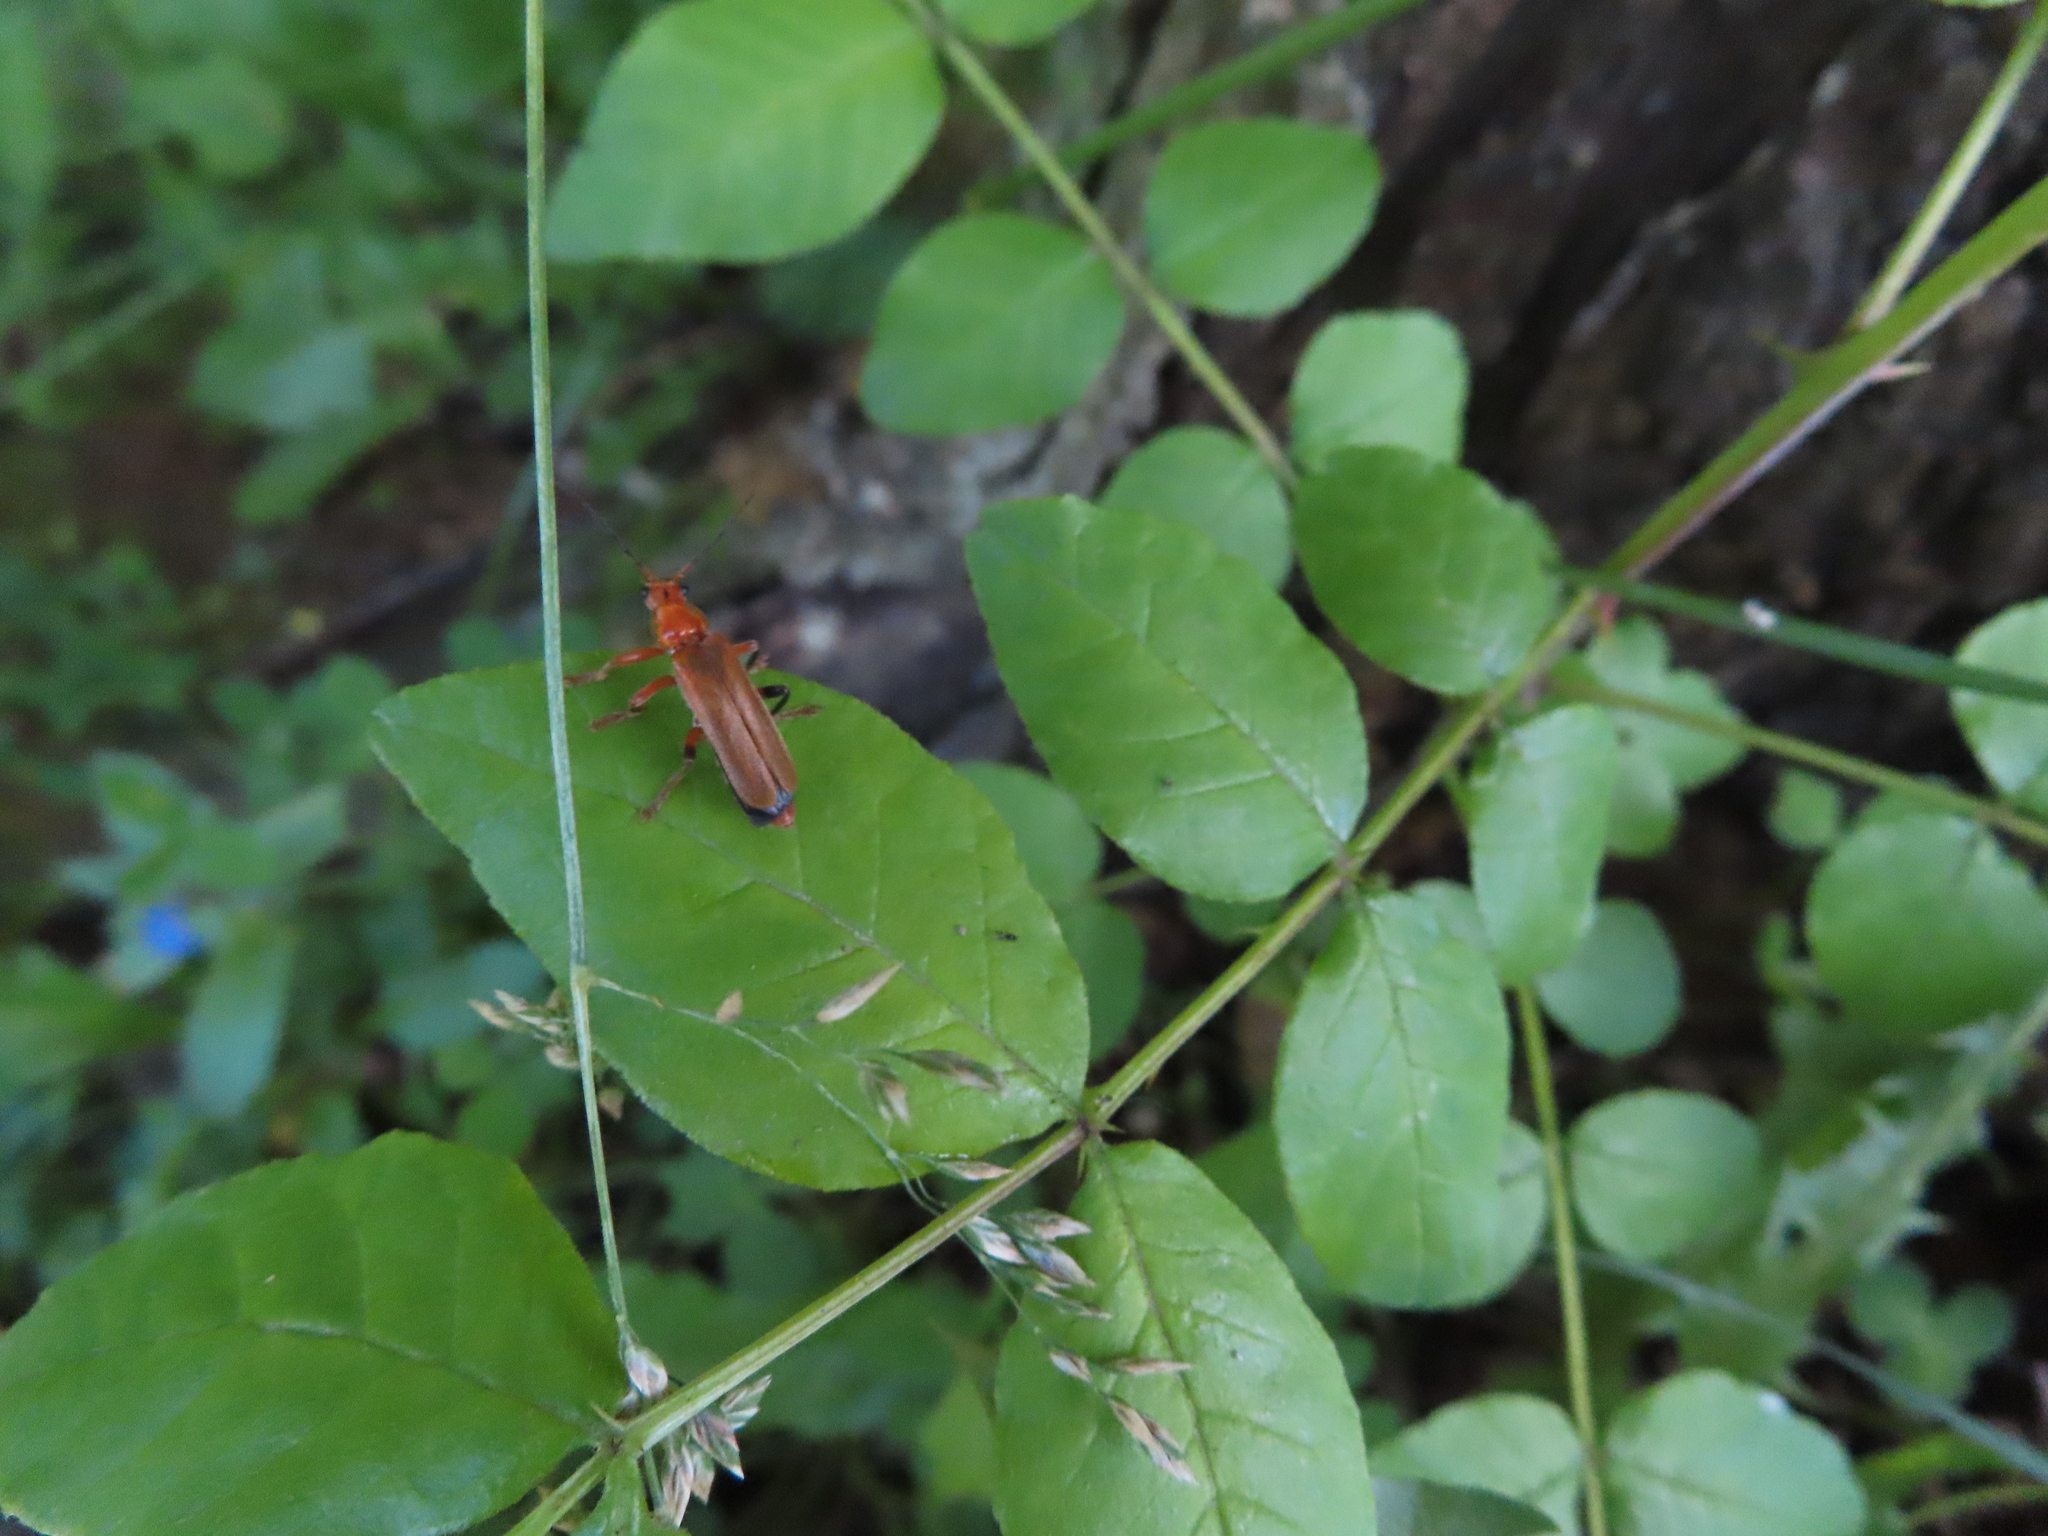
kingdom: Animalia
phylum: Arthropoda
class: Insecta
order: Coleoptera
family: Cantharidae
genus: Cantharis
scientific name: Cantharis livida
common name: Livid soldier beetle
